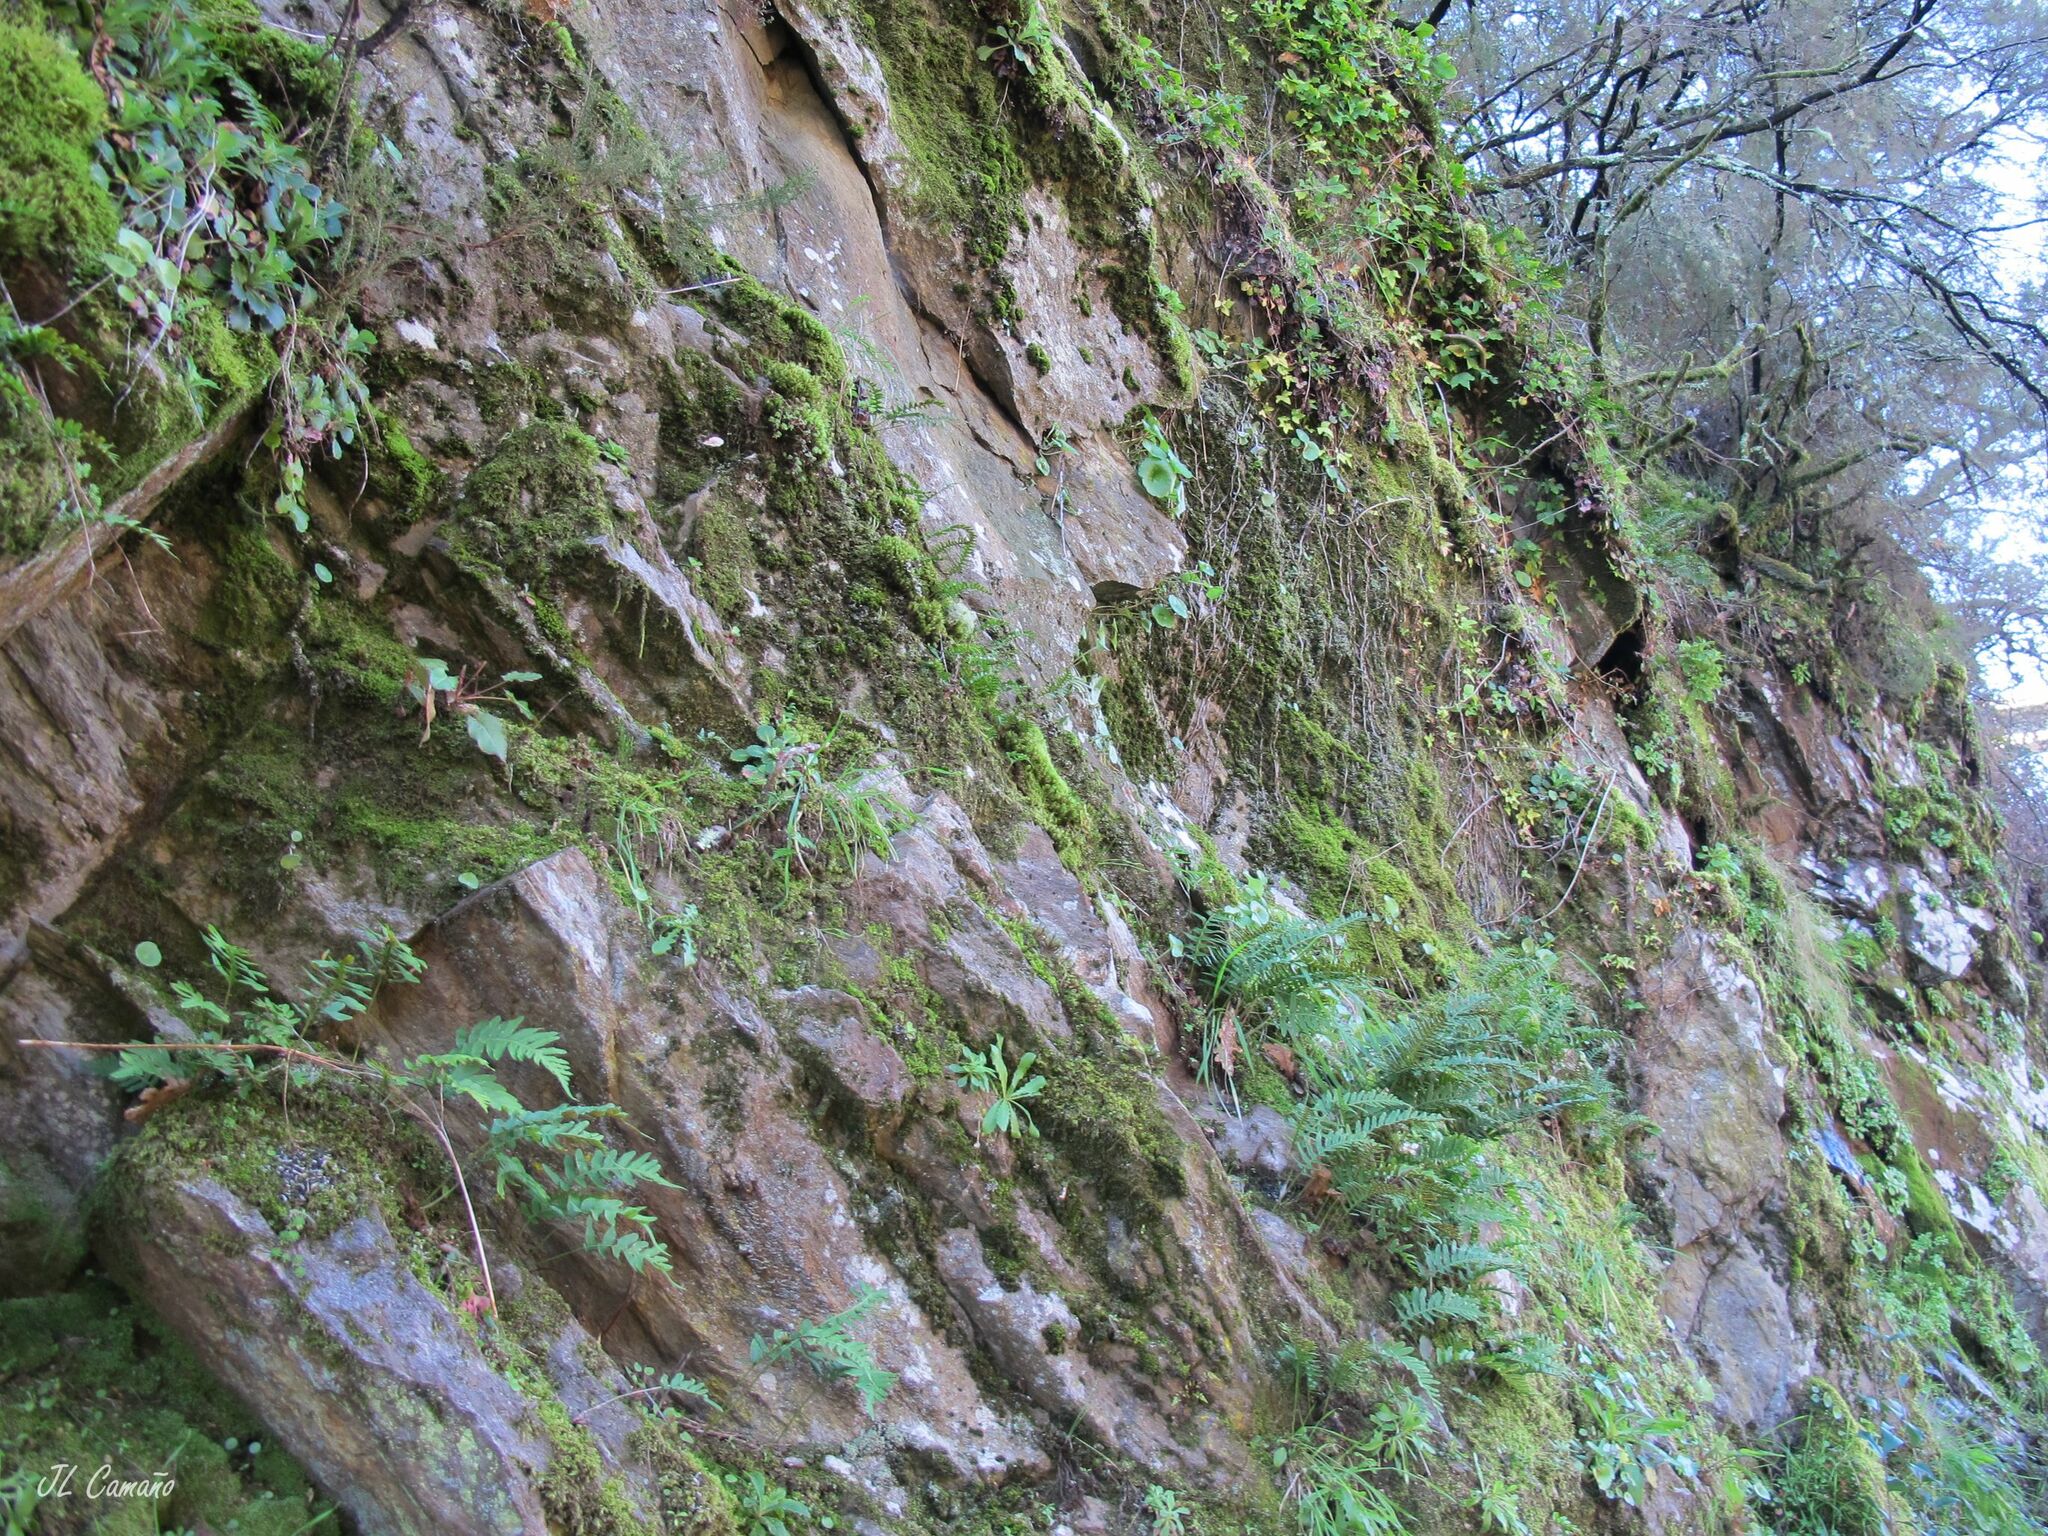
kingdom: Plantae
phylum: Bryophyta
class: Bryopsida
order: Aulacomniales
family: Aulacomniaceae
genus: Aulacomnium
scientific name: Aulacomnium androgynum
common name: Little groove moss
